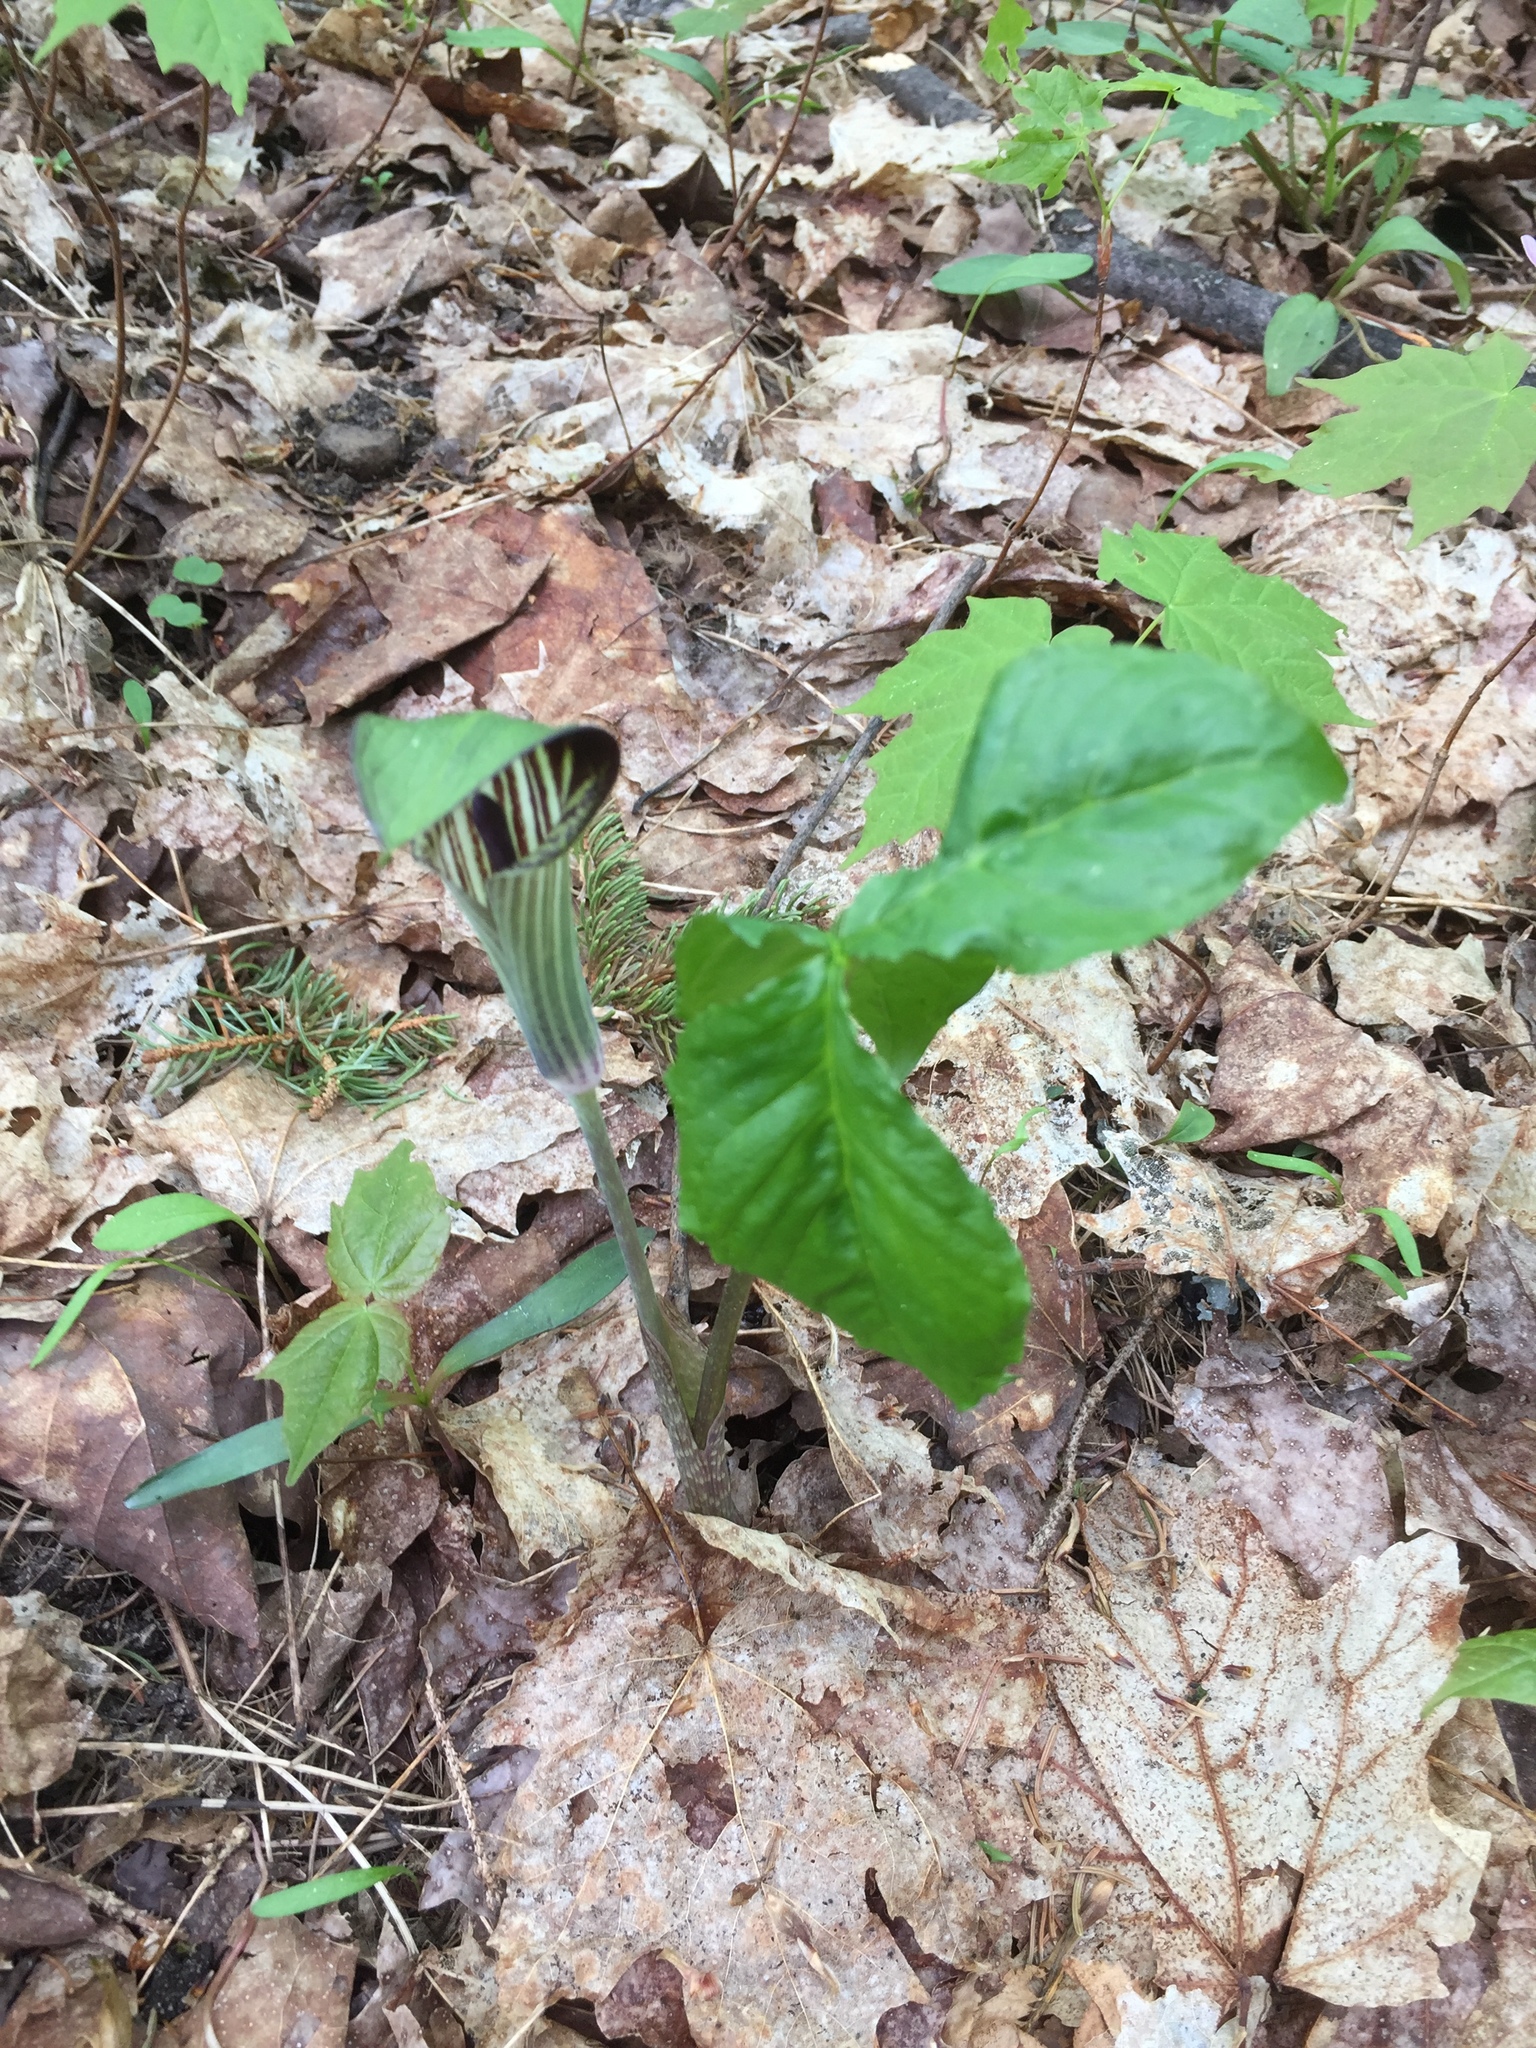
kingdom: Plantae
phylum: Tracheophyta
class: Liliopsida
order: Alismatales
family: Araceae
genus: Arisaema
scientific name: Arisaema triphyllum
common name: Jack-in-the-pulpit
